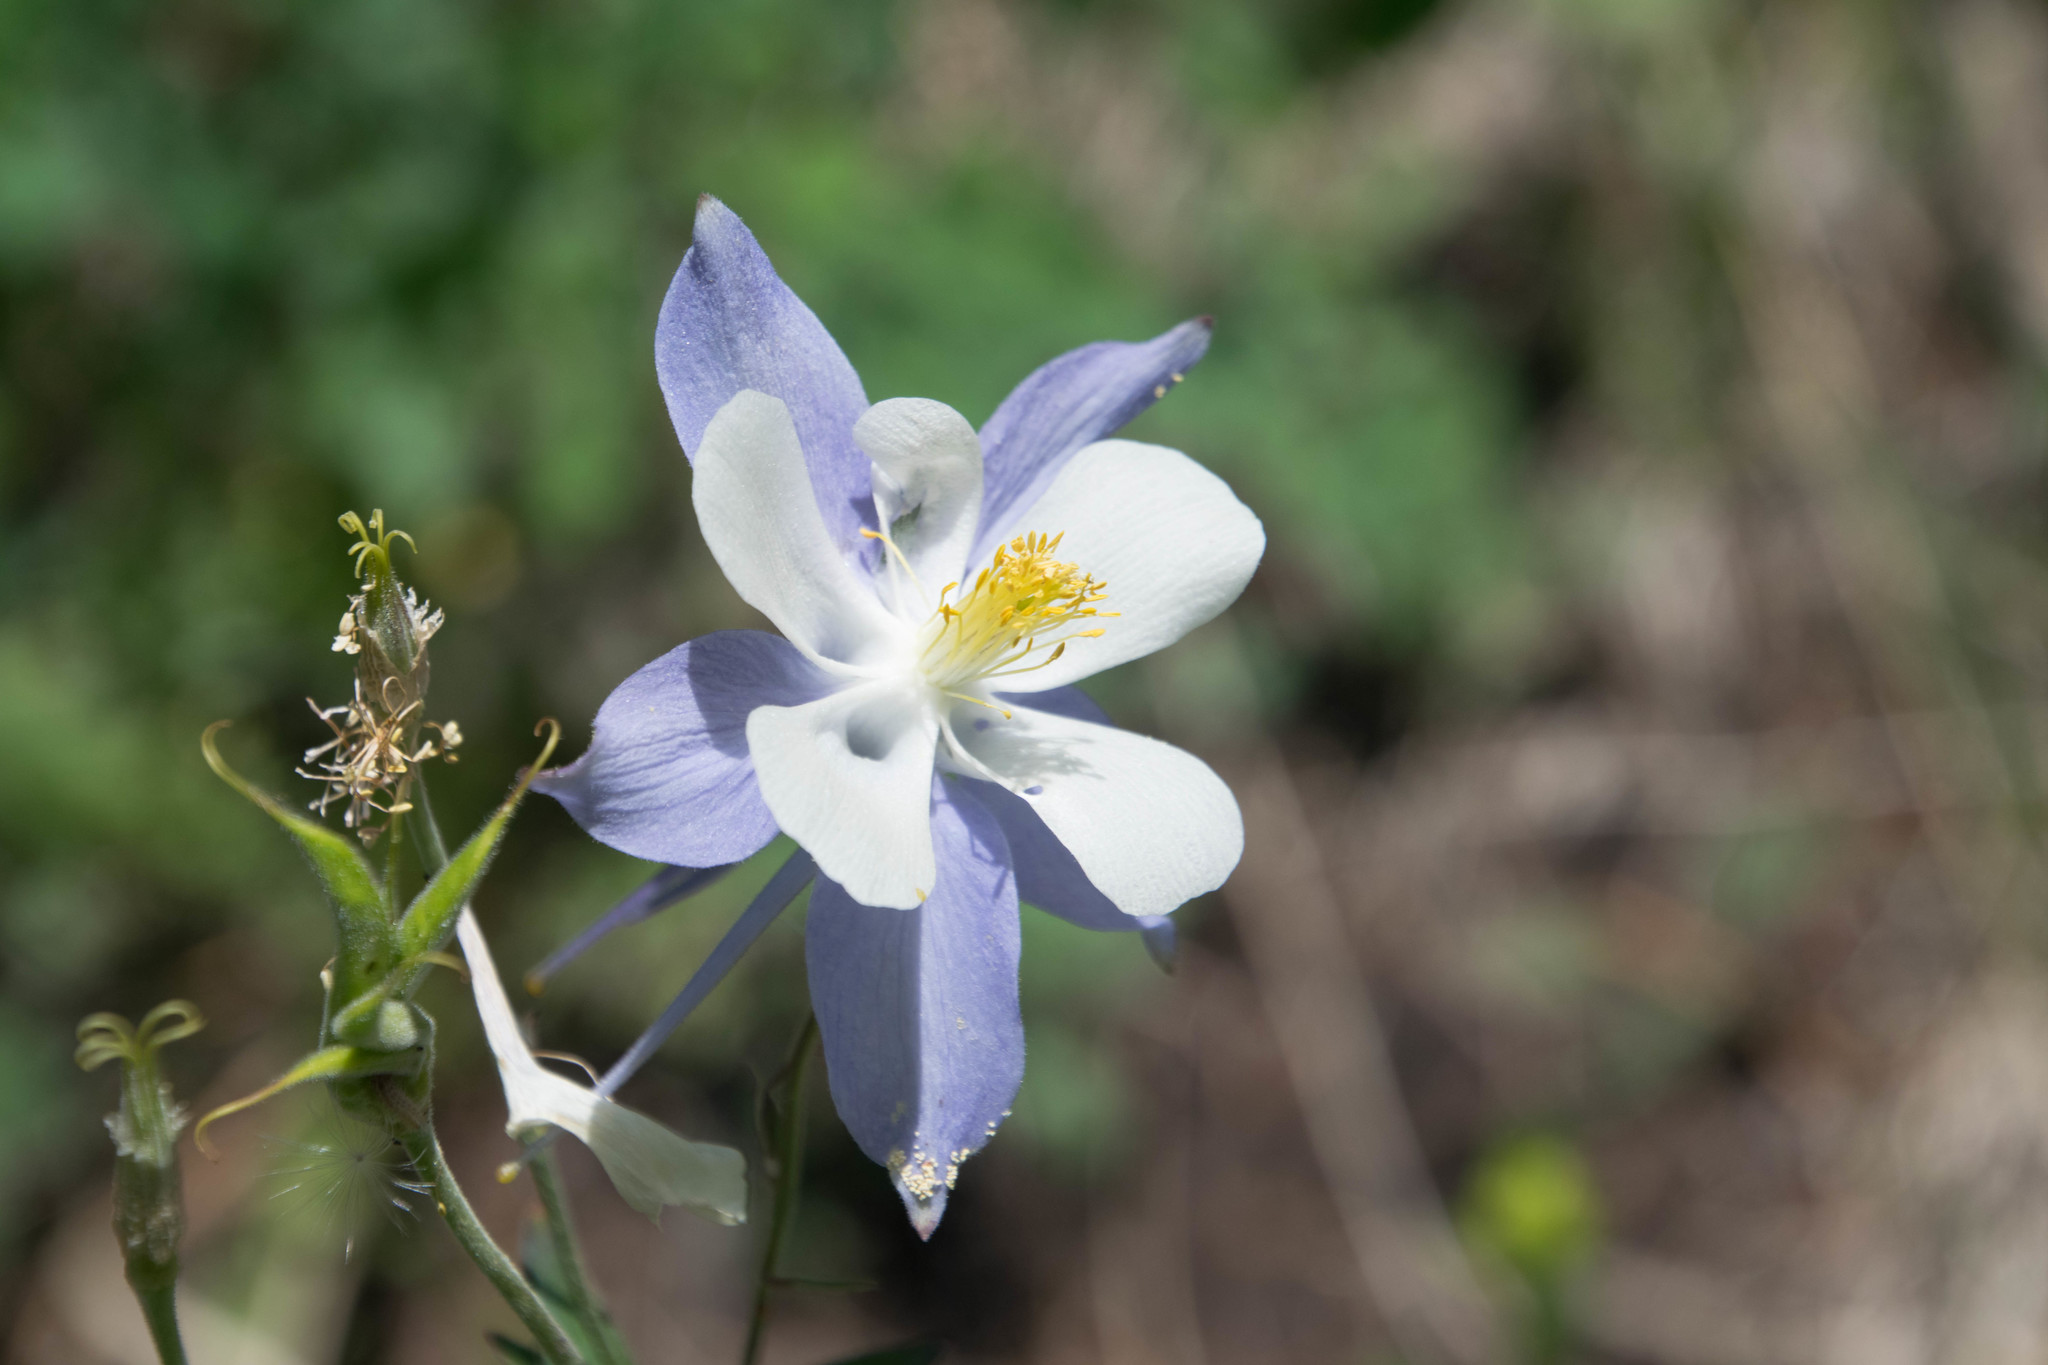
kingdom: Plantae
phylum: Tracheophyta
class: Magnoliopsida
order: Ranunculales
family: Ranunculaceae
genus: Aquilegia
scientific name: Aquilegia coerulea
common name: Rocky mountain columbine
